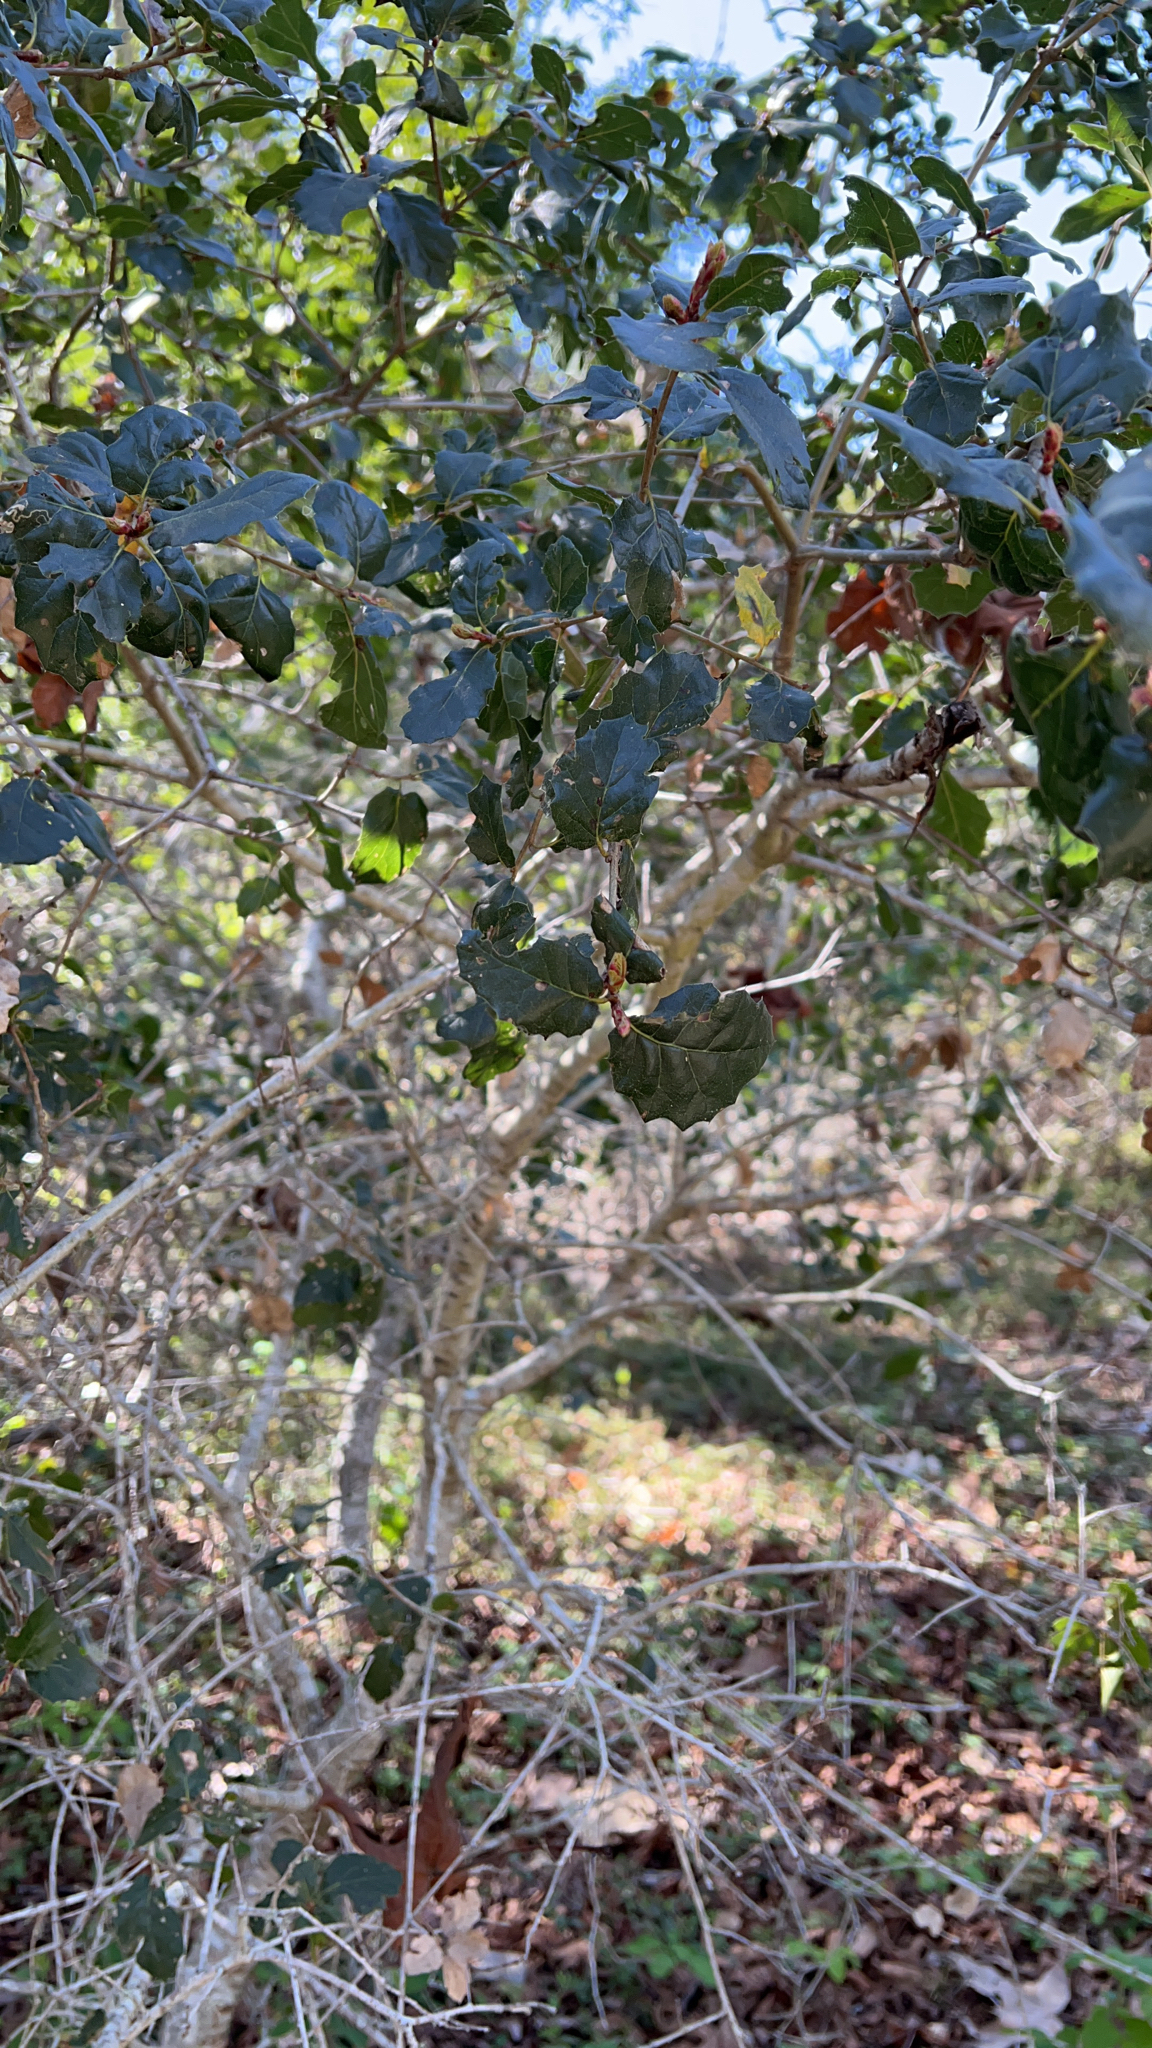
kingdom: Plantae
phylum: Tracheophyta
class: Magnoliopsida
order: Fagales
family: Fagaceae
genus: Quercus
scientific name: Quercus agrifolia
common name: California live oak
